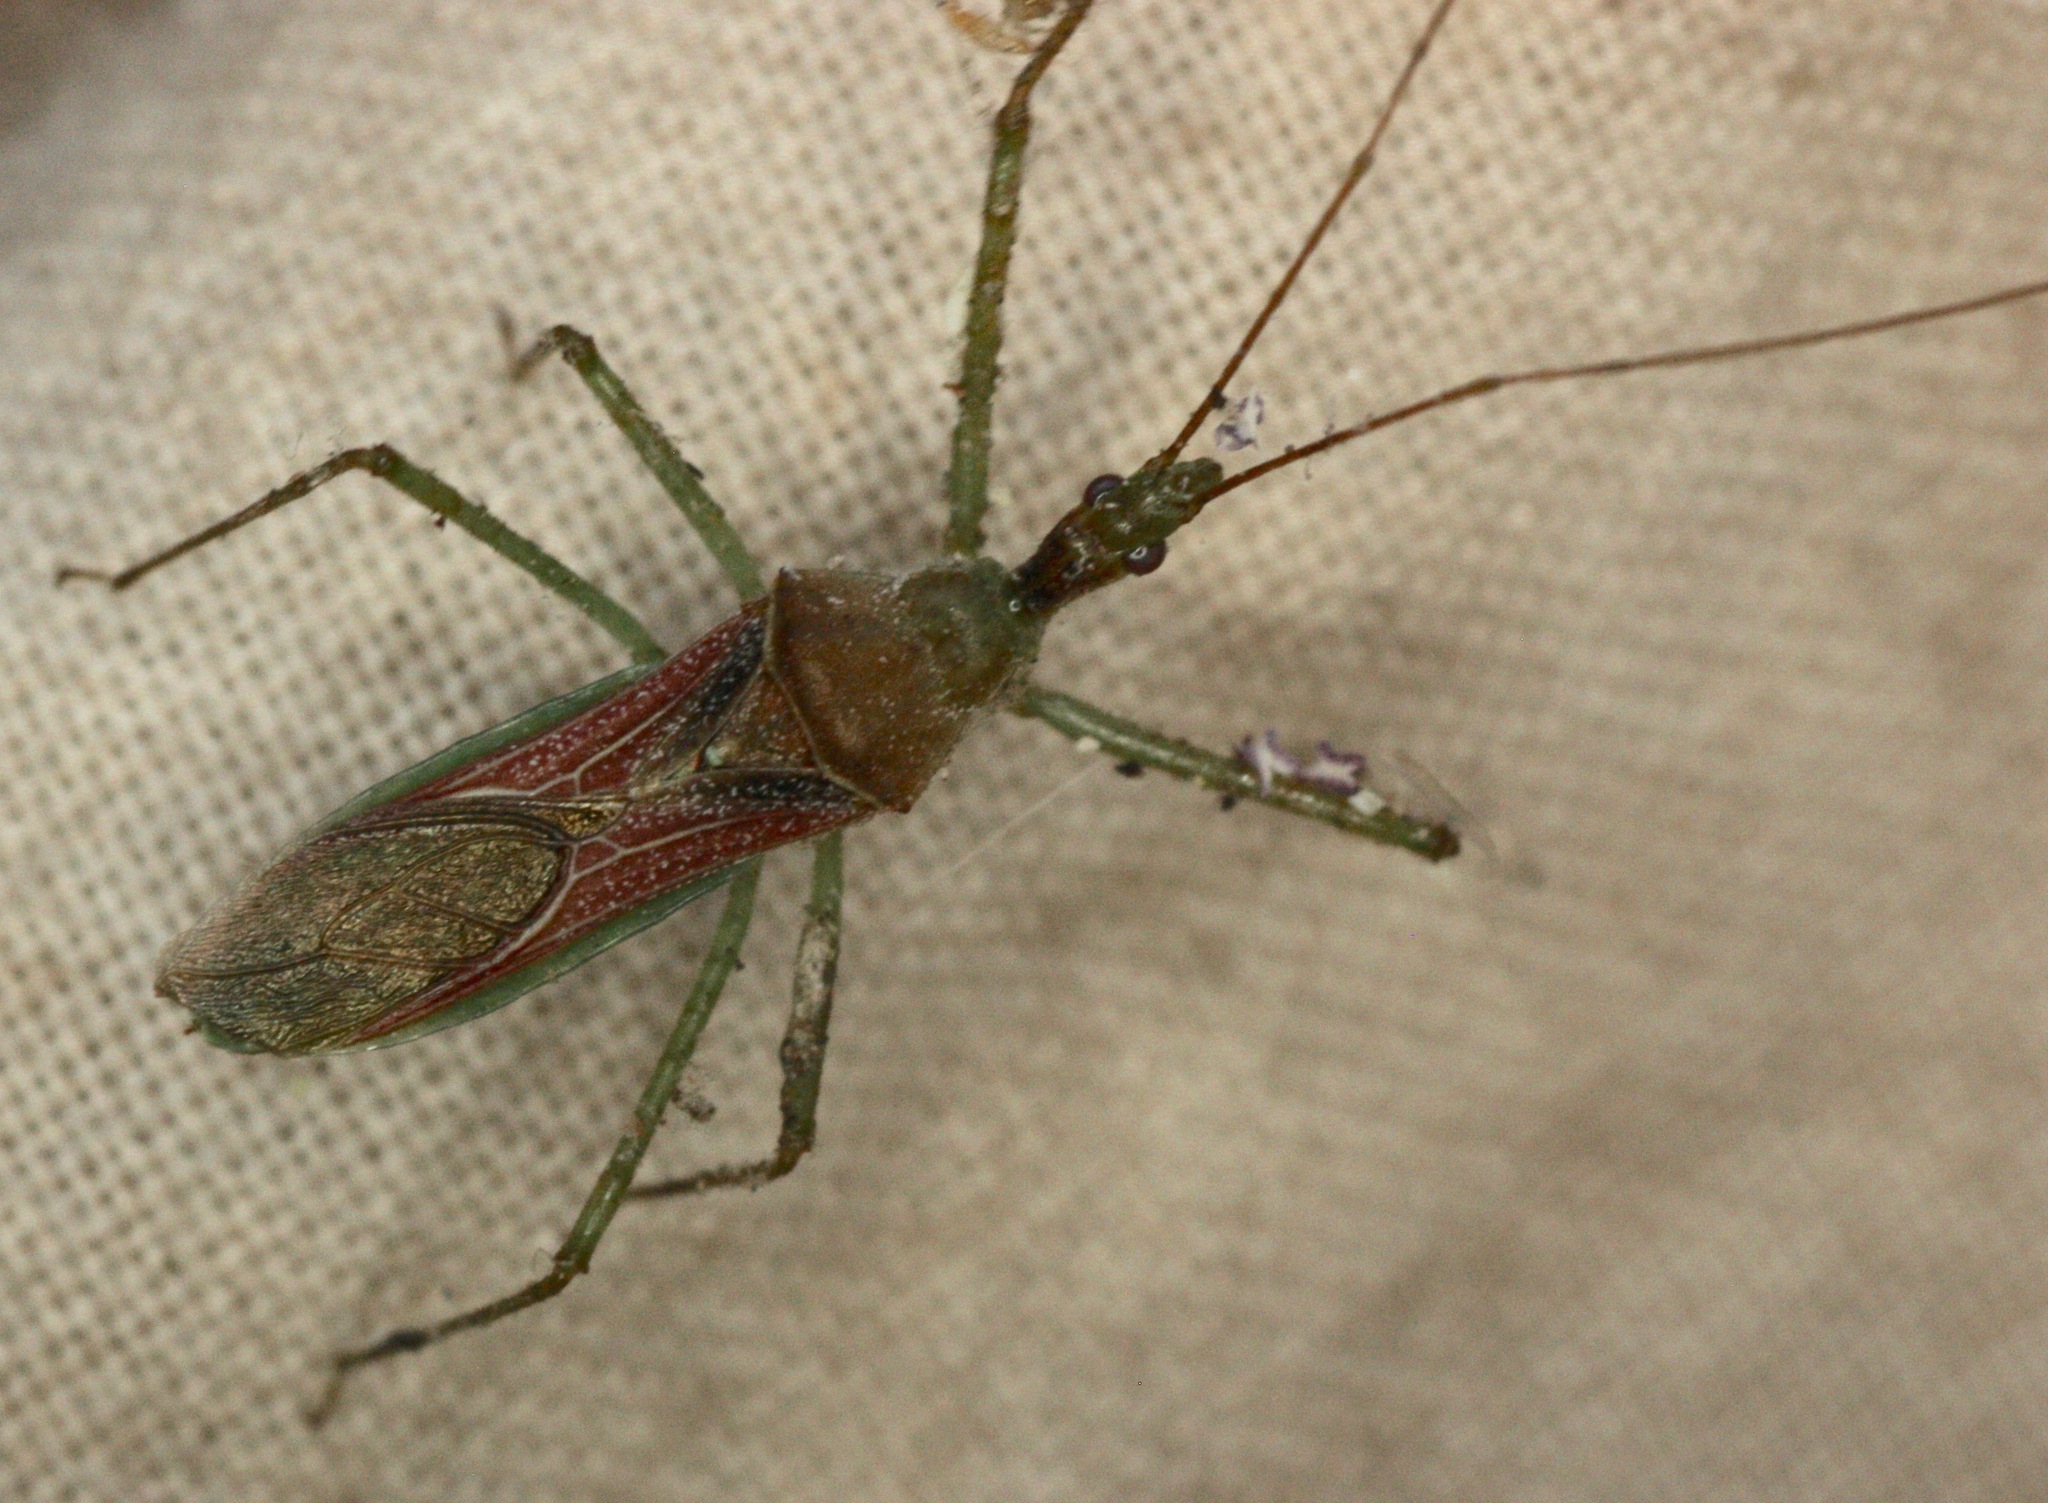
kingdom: Animalia
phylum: Arthropoda
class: Insecta
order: Hemiptera
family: Reduviidae
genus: Zelus
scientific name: Zelus renardii
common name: Assassin bug
